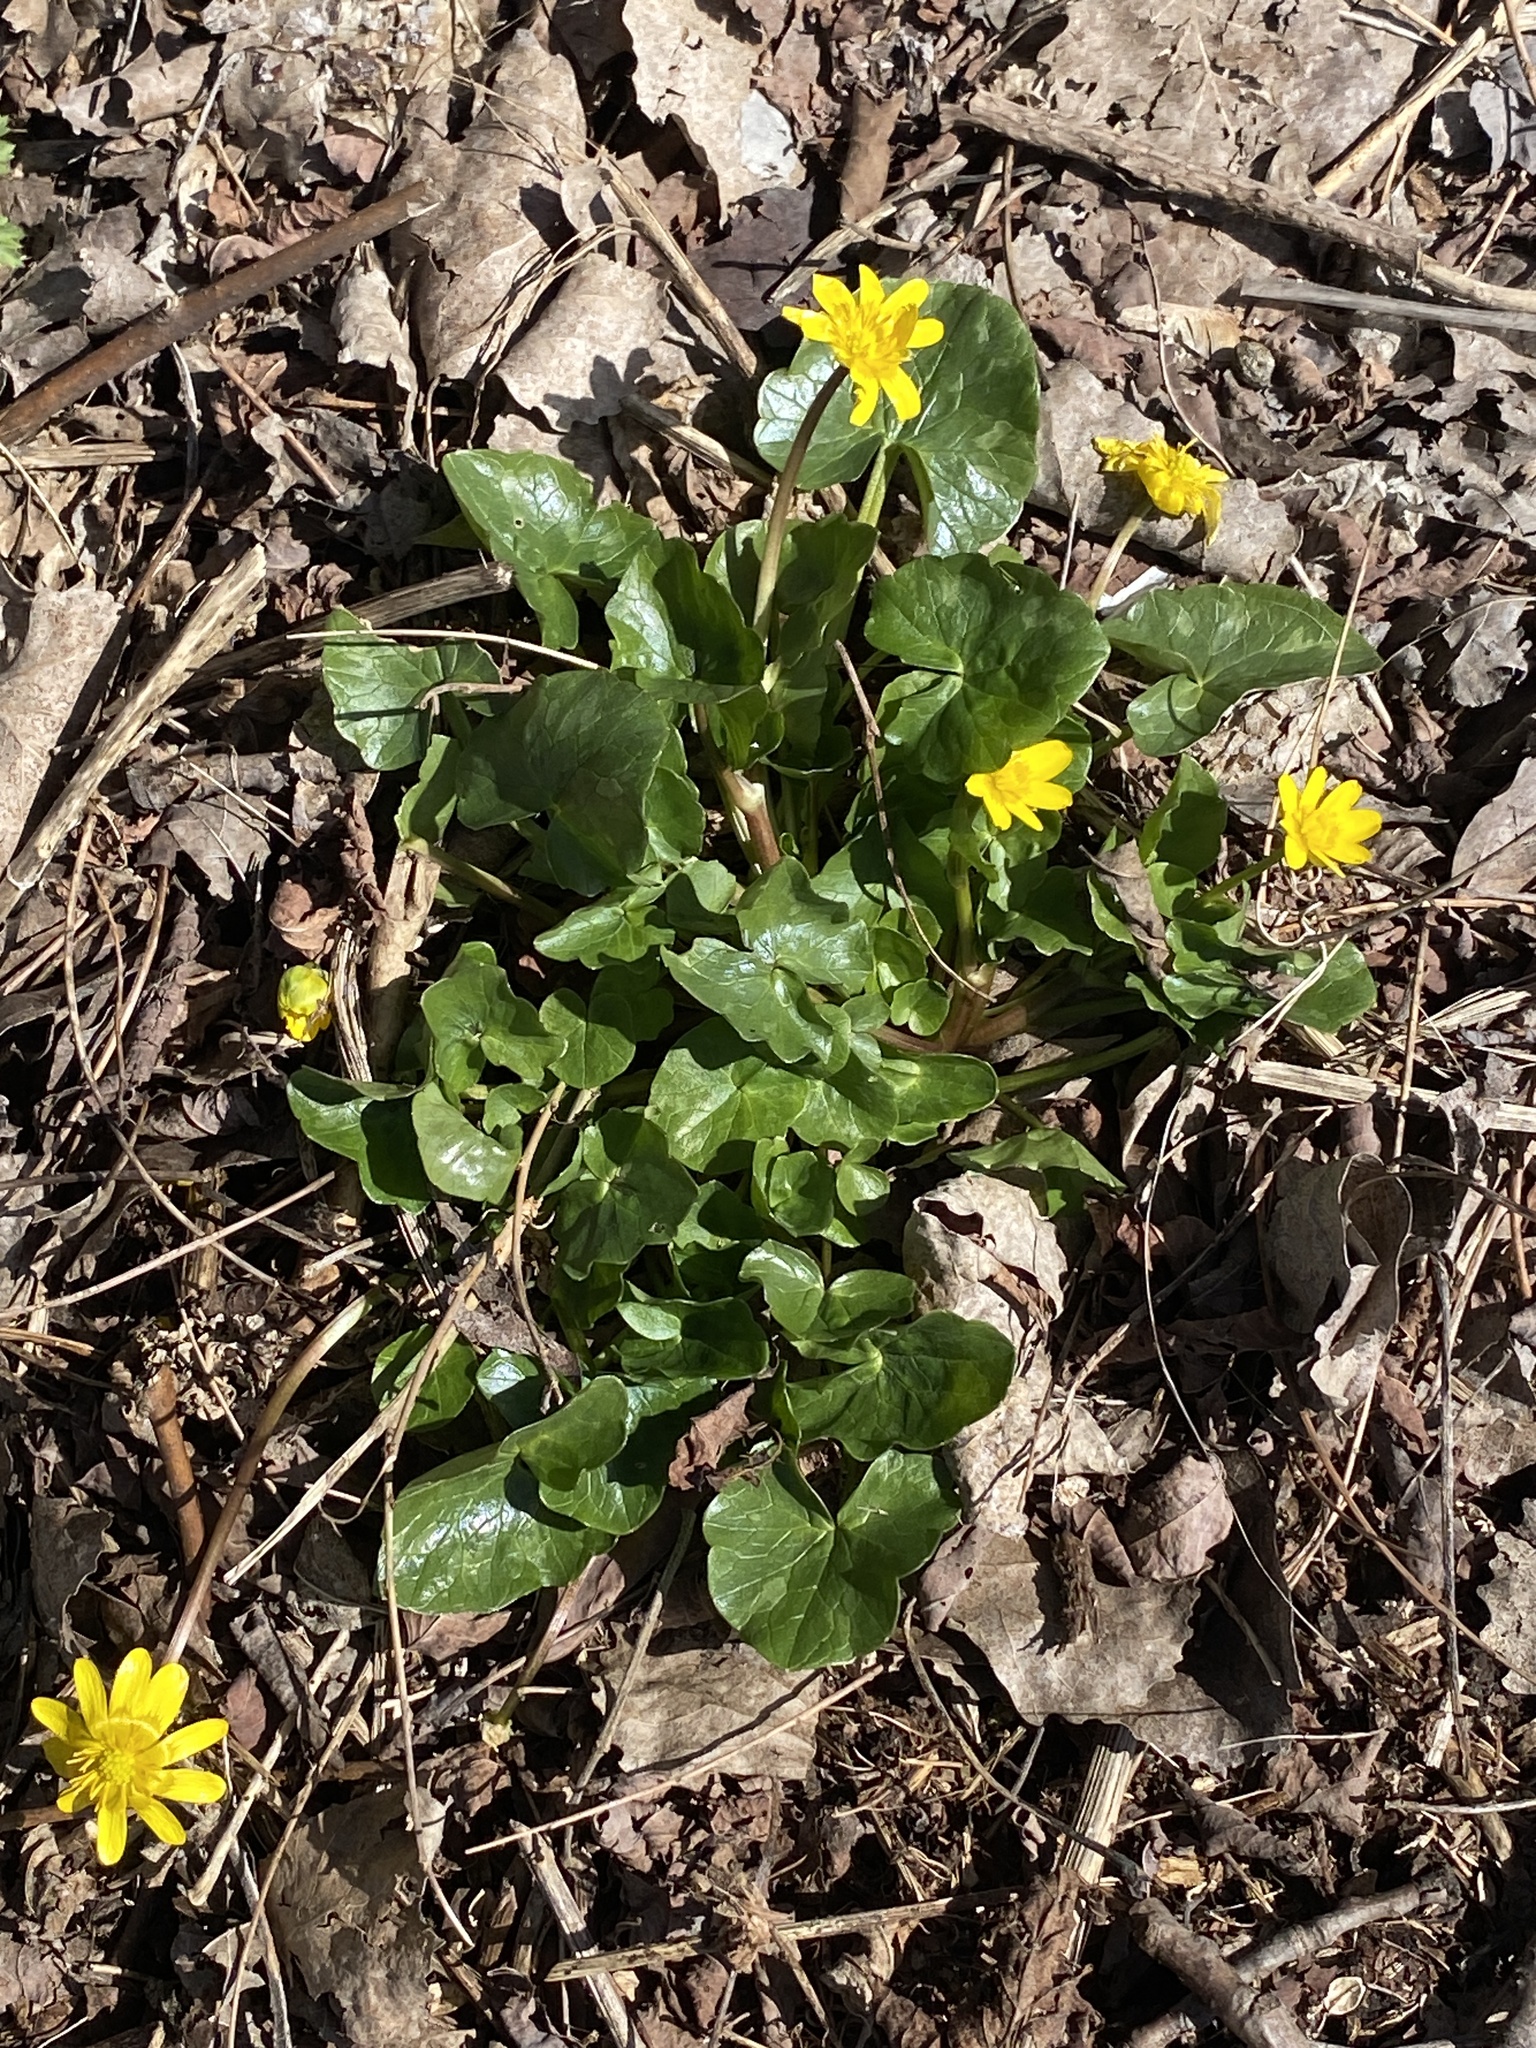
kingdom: Plantae
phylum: Tracheophyta
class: Magnoliopsida
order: Ranunculales
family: Ranunculaceae
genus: Ficaria
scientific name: Ficaria verna
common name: Lesser celandine
